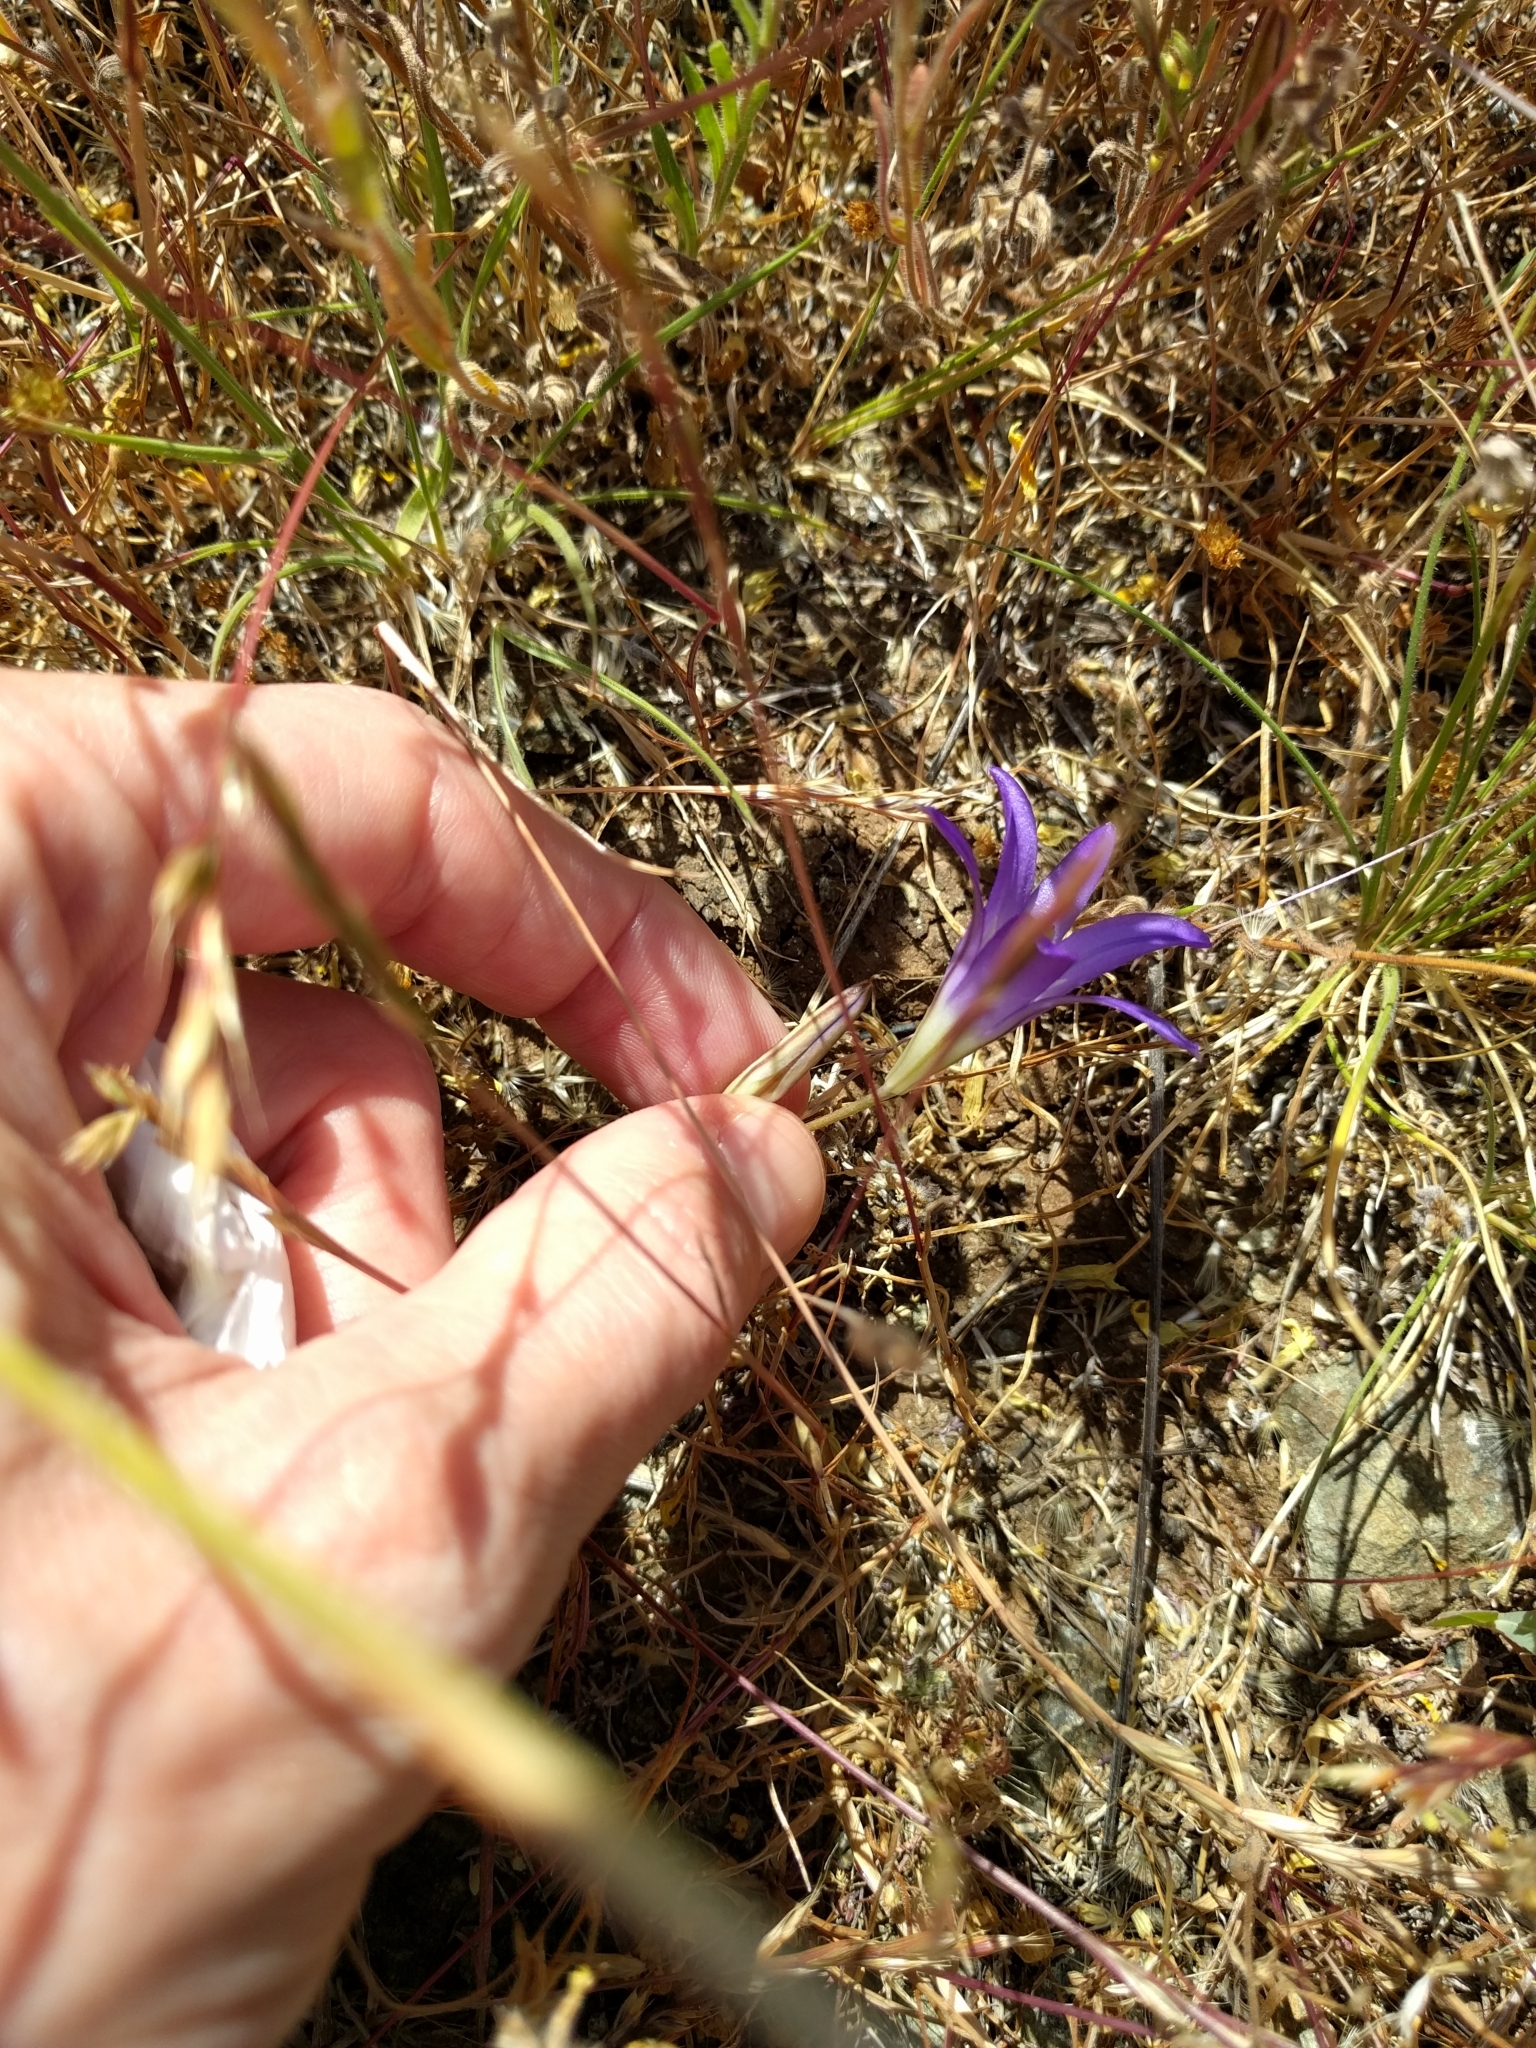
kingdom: Plantae
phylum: Tracheophyta
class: Liliopsida
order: Asparagales
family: Asparagaceae
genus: Brodiaea
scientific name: Brodiaea elegans
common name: Elegant cluster-lily
